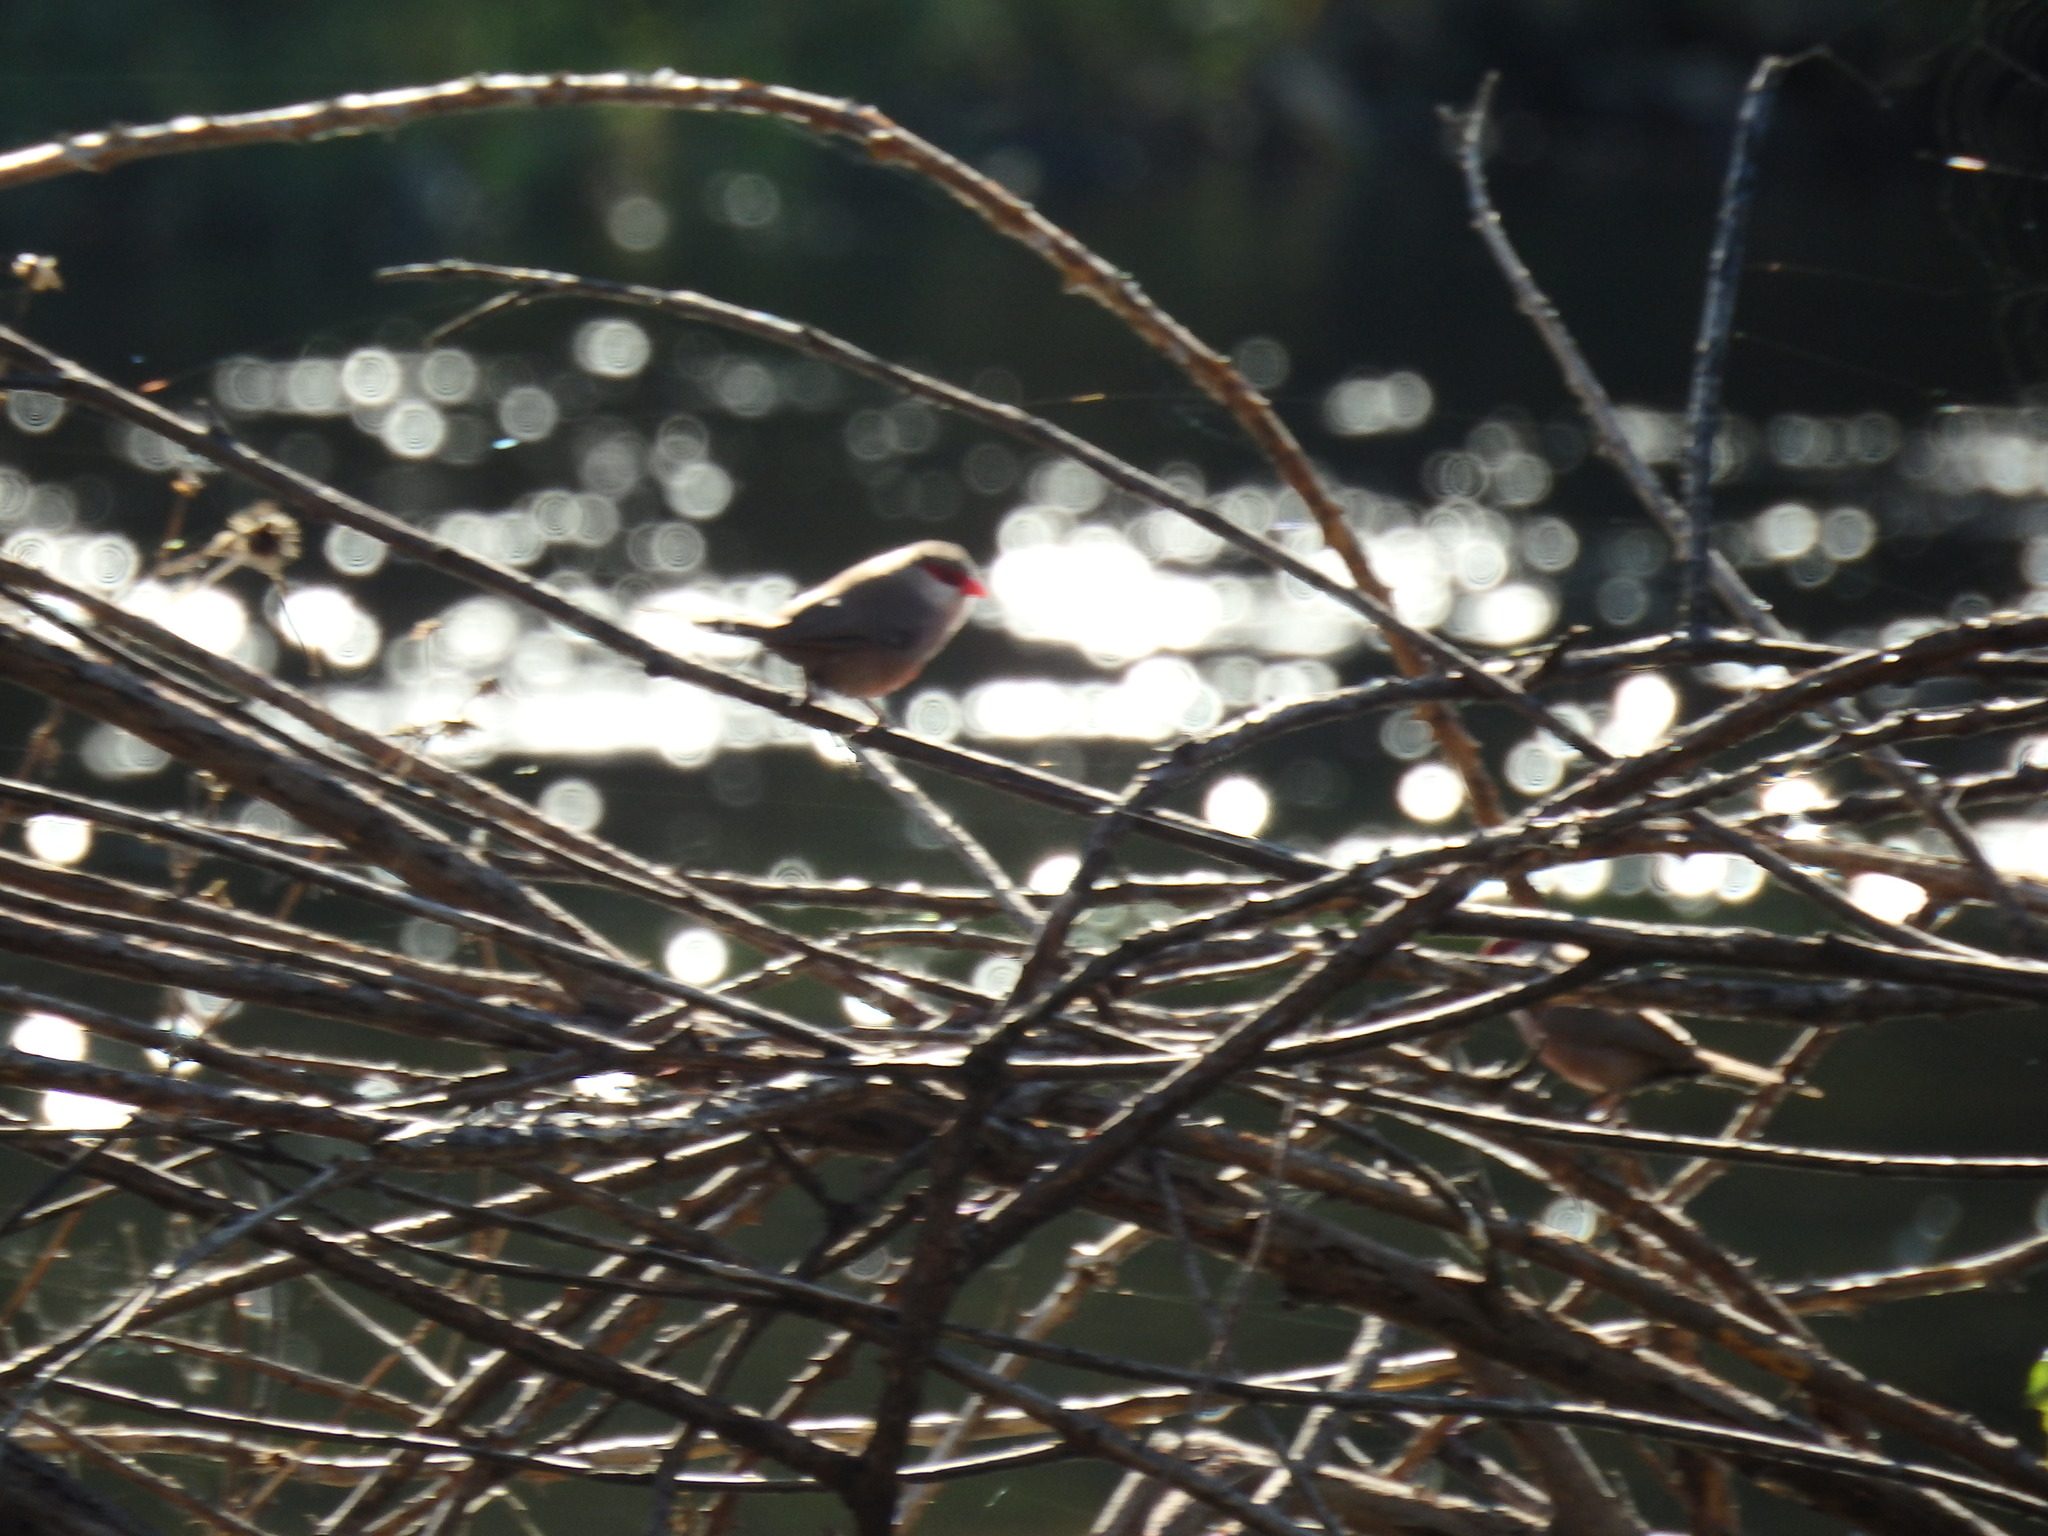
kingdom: Animalia
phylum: Chordata
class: Aves
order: Passeriformes
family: Estrildidae
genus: Estrilda
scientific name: Estrilda astrild
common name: Common waxbill
